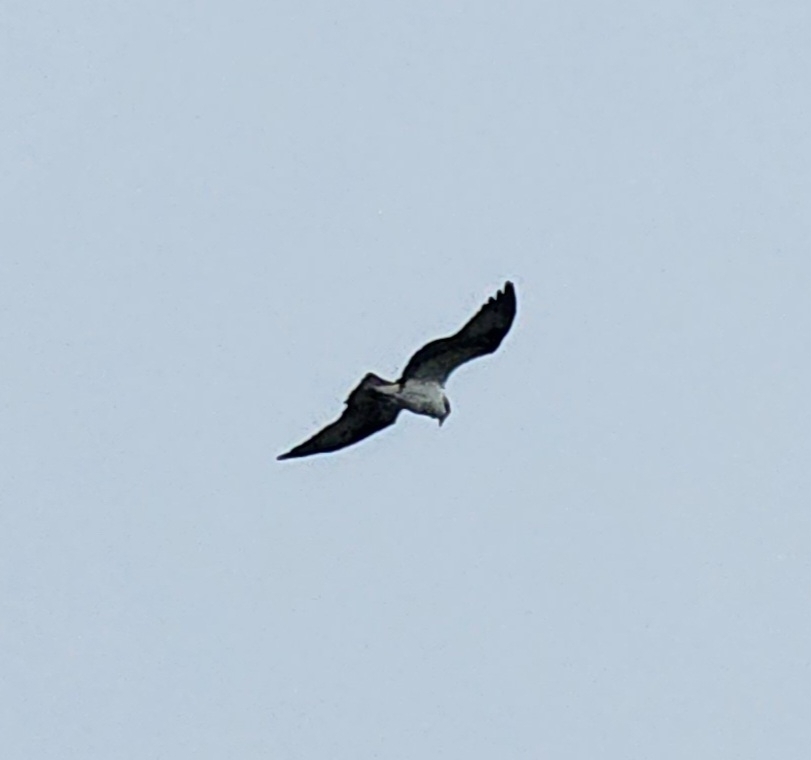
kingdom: Animalia
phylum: Chordata
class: Aves
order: Accipitriformes
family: Pandionidae
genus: Pandion
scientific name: Pandion haliaetus
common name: Osprey
